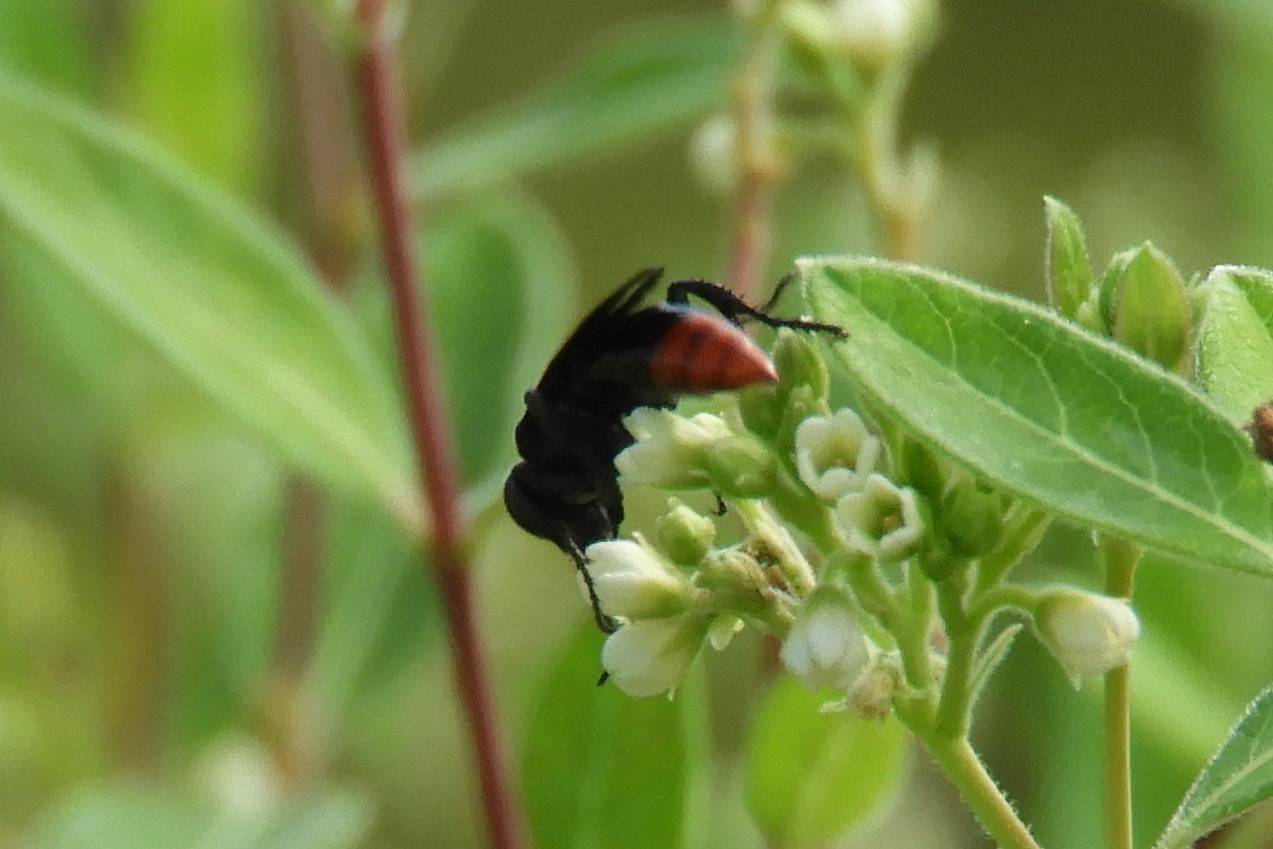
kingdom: Animalia
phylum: Arthropoda
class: Insecta
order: Hymenoptera
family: Crabronidae
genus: Larra
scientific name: Larra analis
